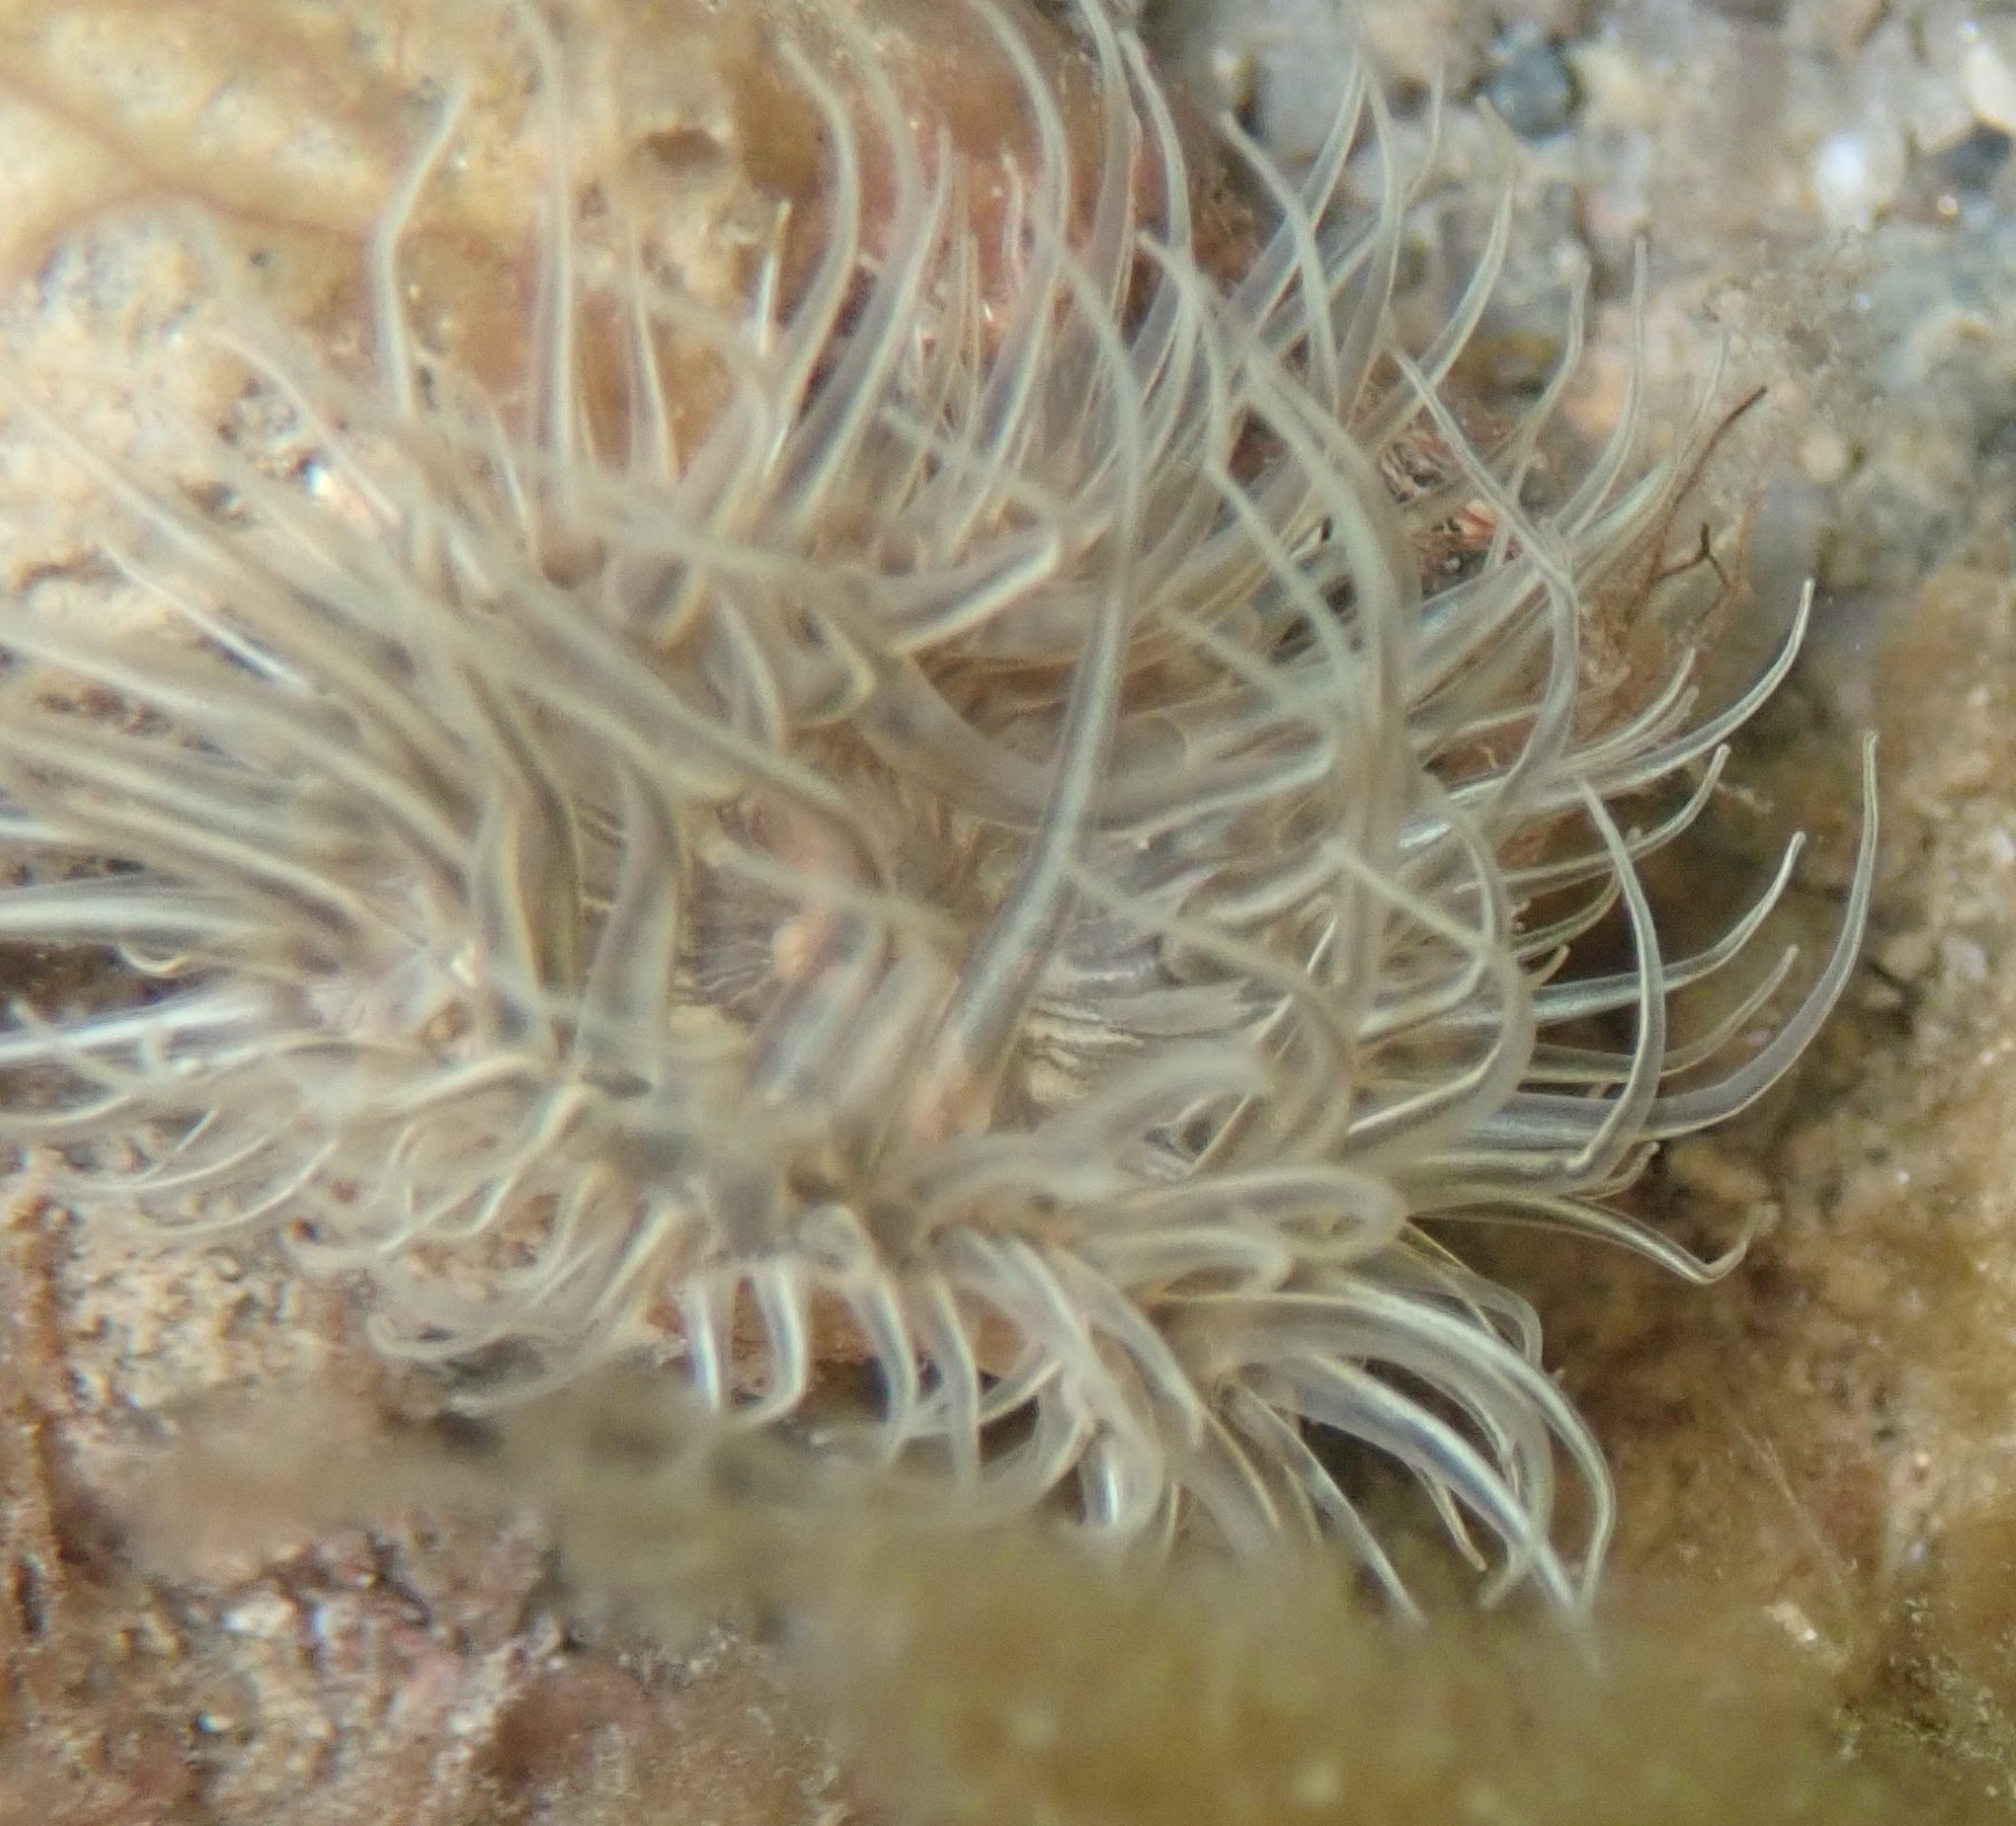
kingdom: Animalia
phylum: Cnidaria
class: Anthozoa
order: Actiniaria
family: Sagartiidae
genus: Sagartia
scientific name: Sagartia undata
